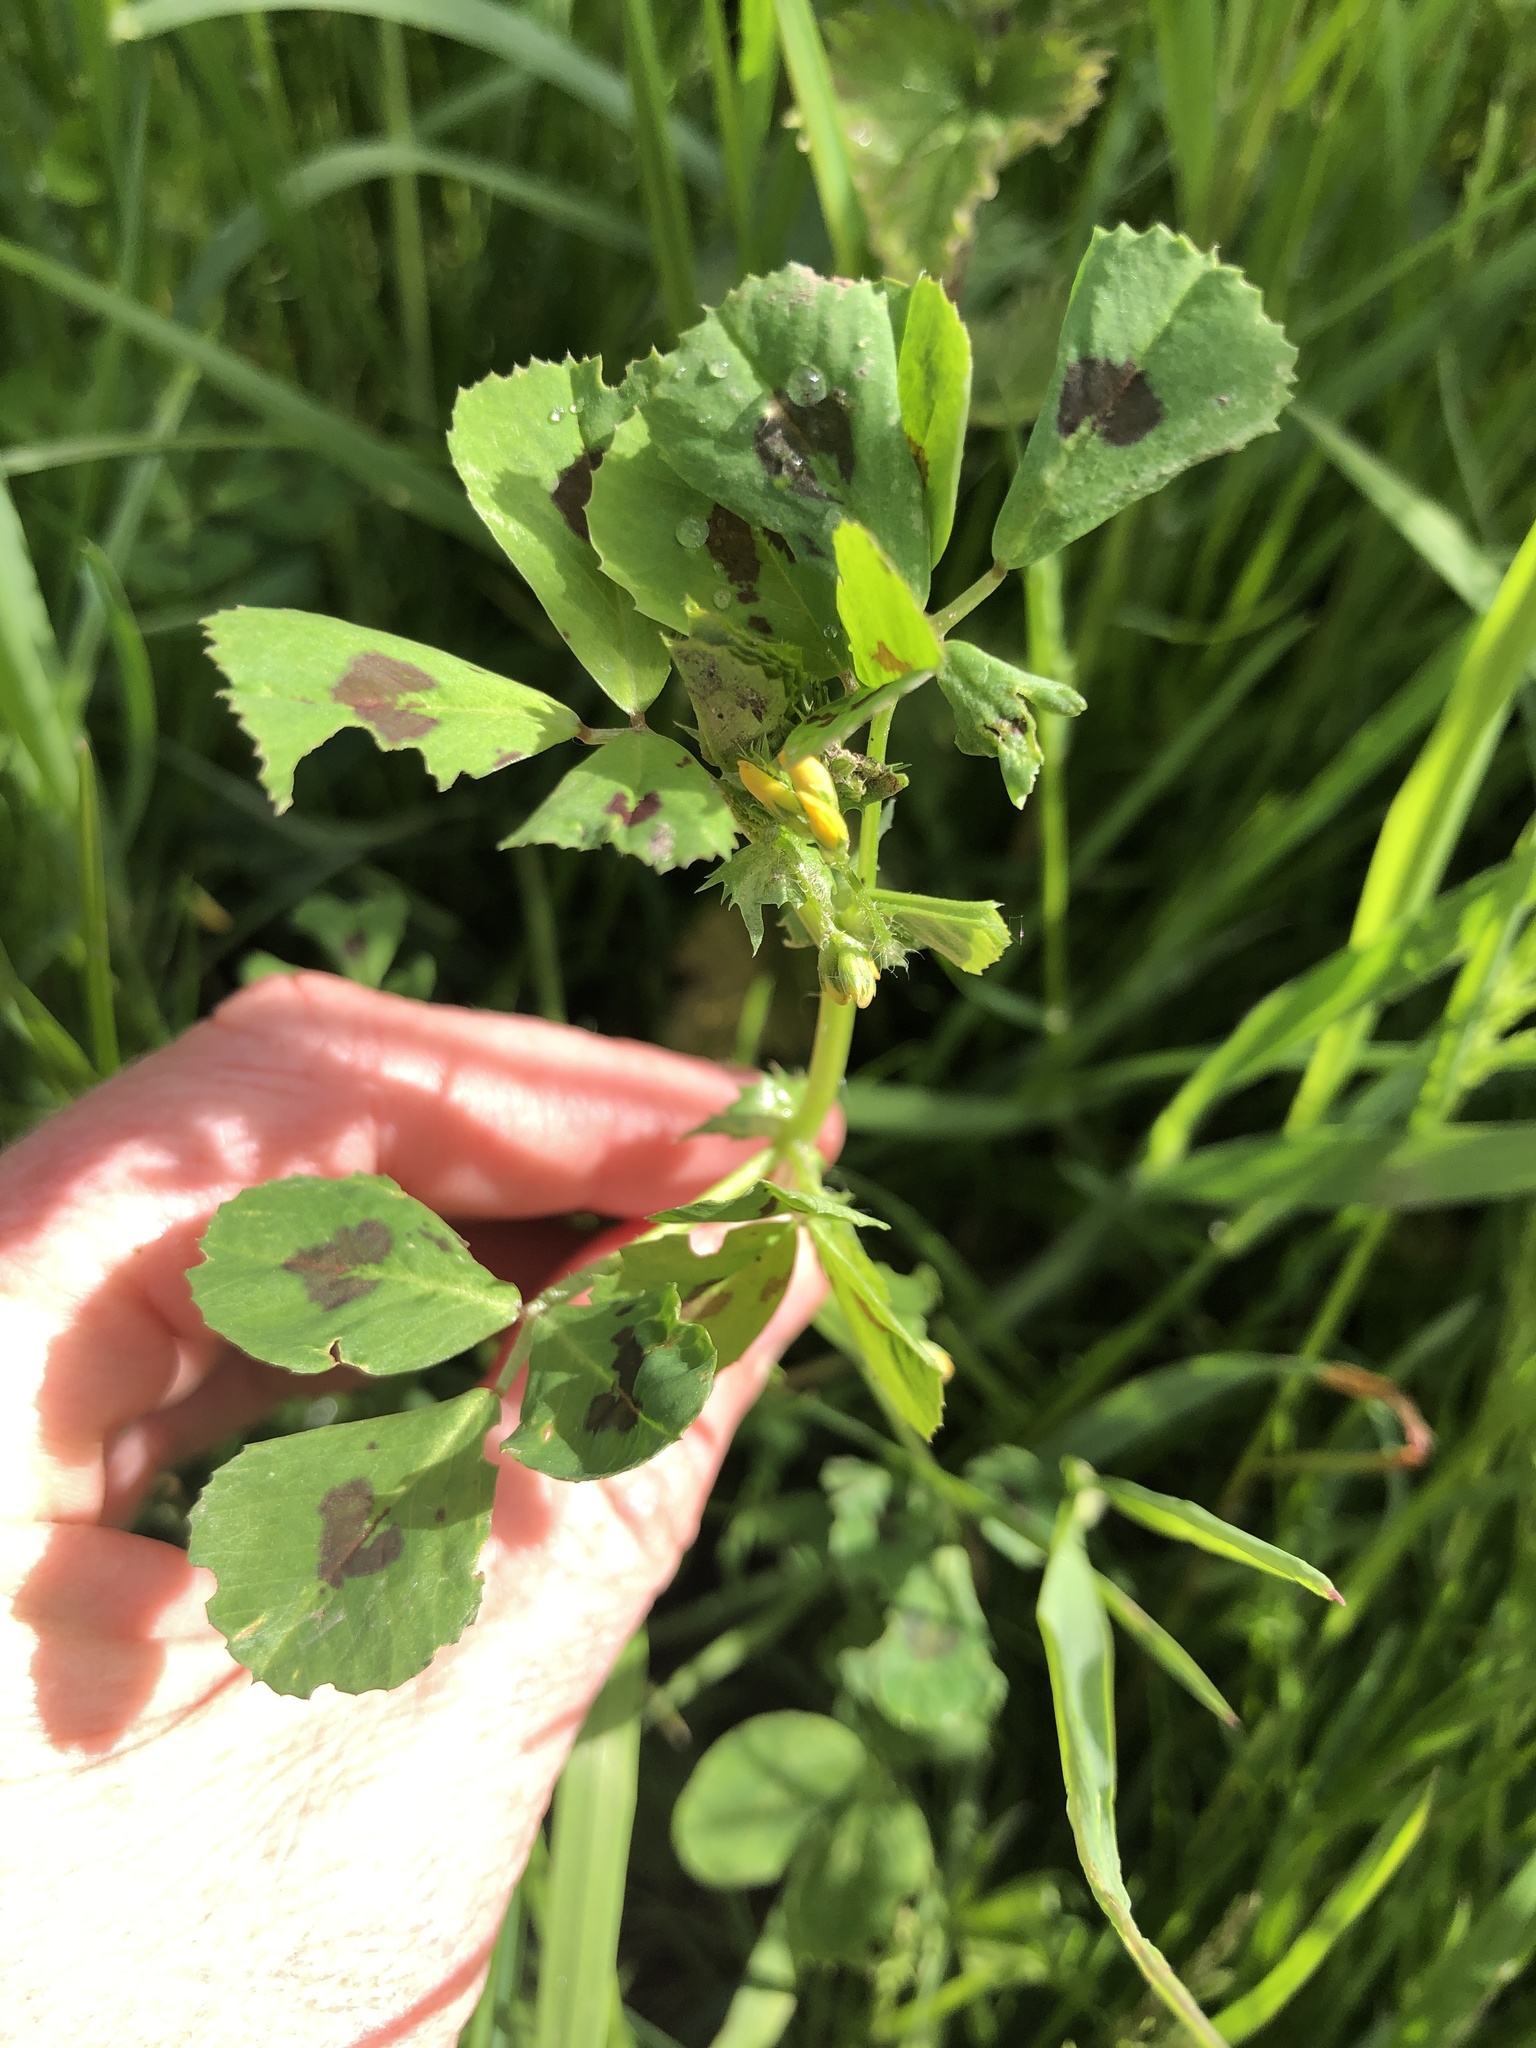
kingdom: Plantae
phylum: Tracheophyta
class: Magnoliopsida
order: Fabales
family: Fabaceae
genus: Medicago
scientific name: Medicago arabica
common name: Spotted medick
